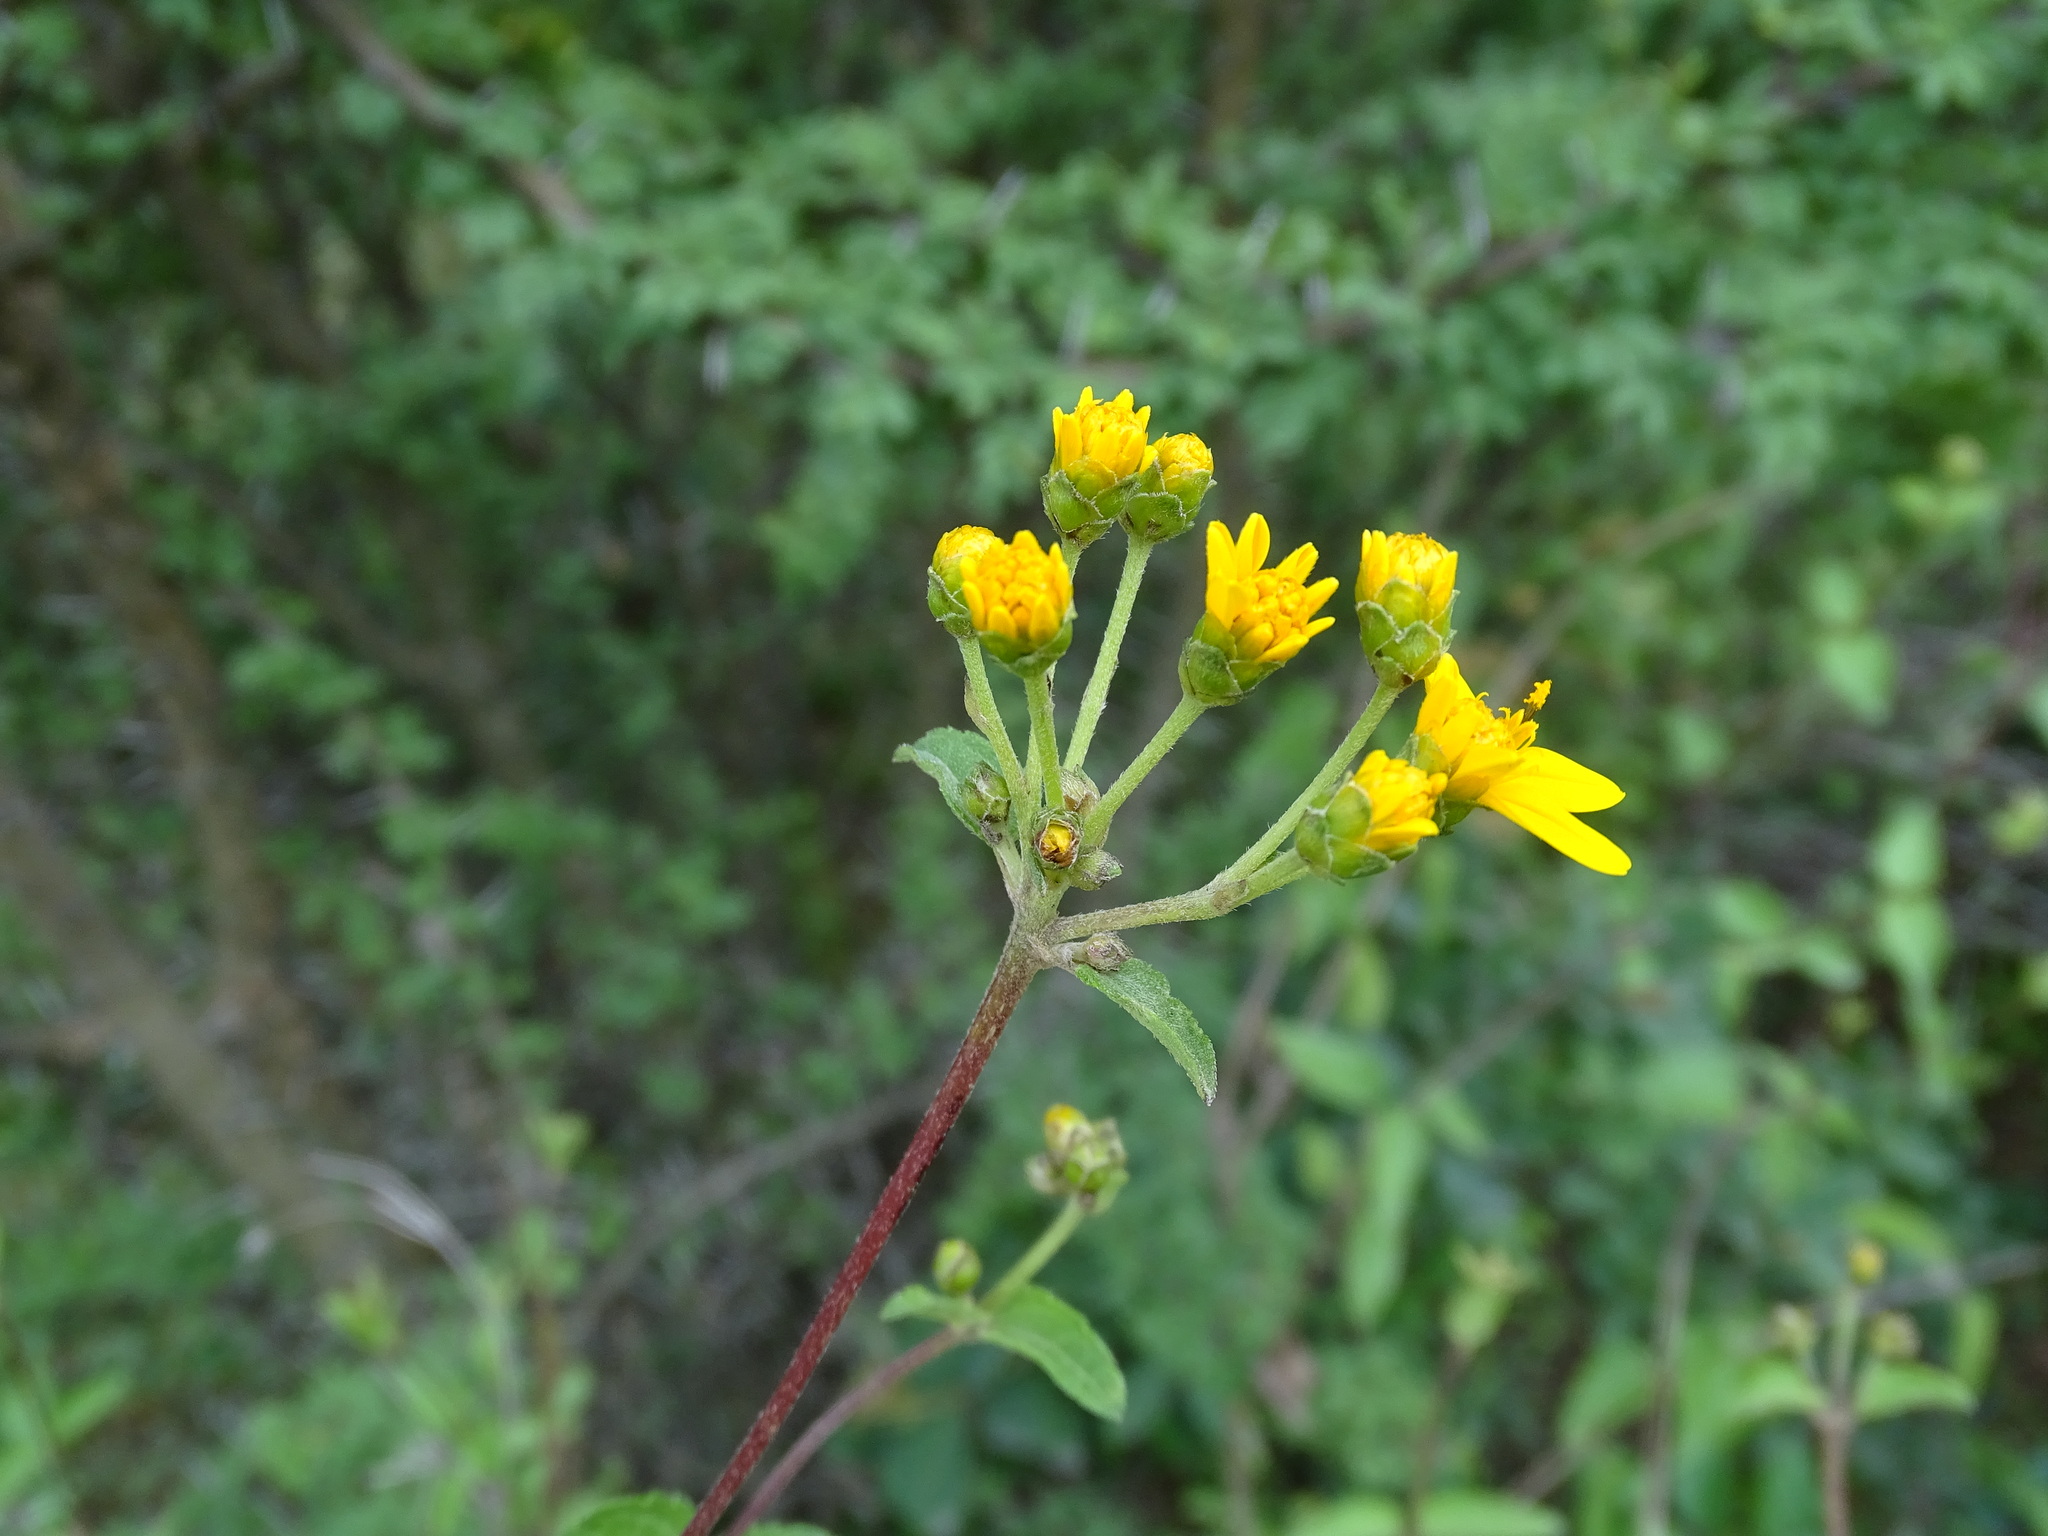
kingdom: Plantae
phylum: Tracheophyta
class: Magnoliopsida
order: Asterales
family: Asteraceae
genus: Perymenium
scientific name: Perymenium mendezii
